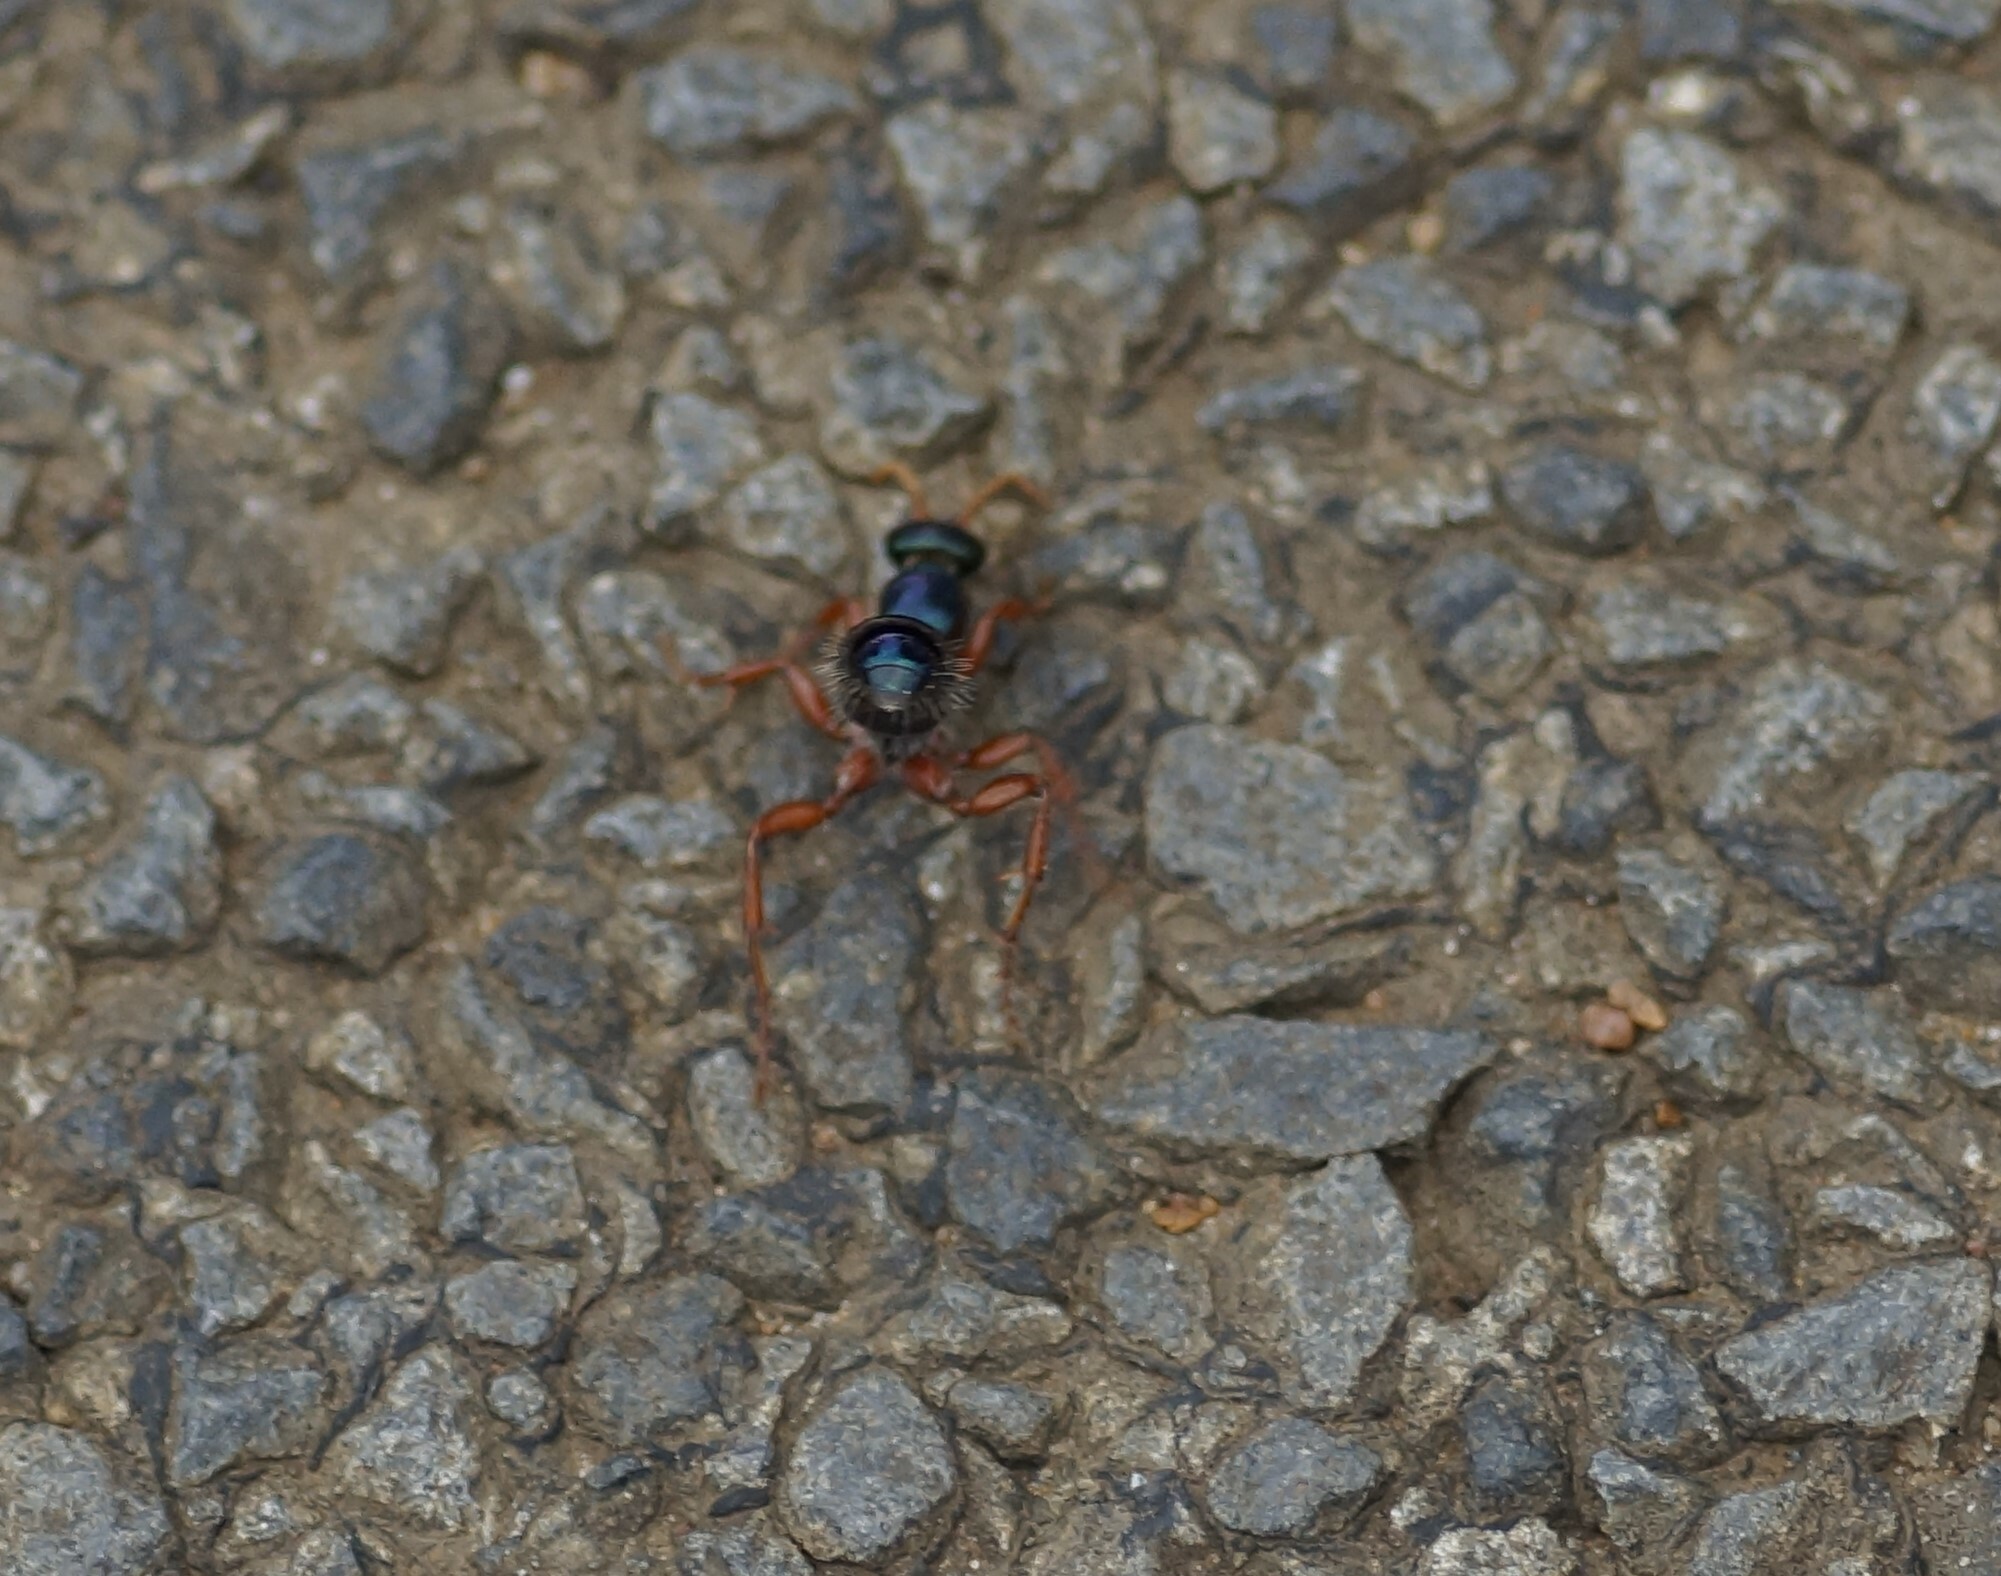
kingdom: Animalia
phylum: Arthropoda
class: Insecta
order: Hymenoptera
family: Tiphiidae
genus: Diamma
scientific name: Diamma
